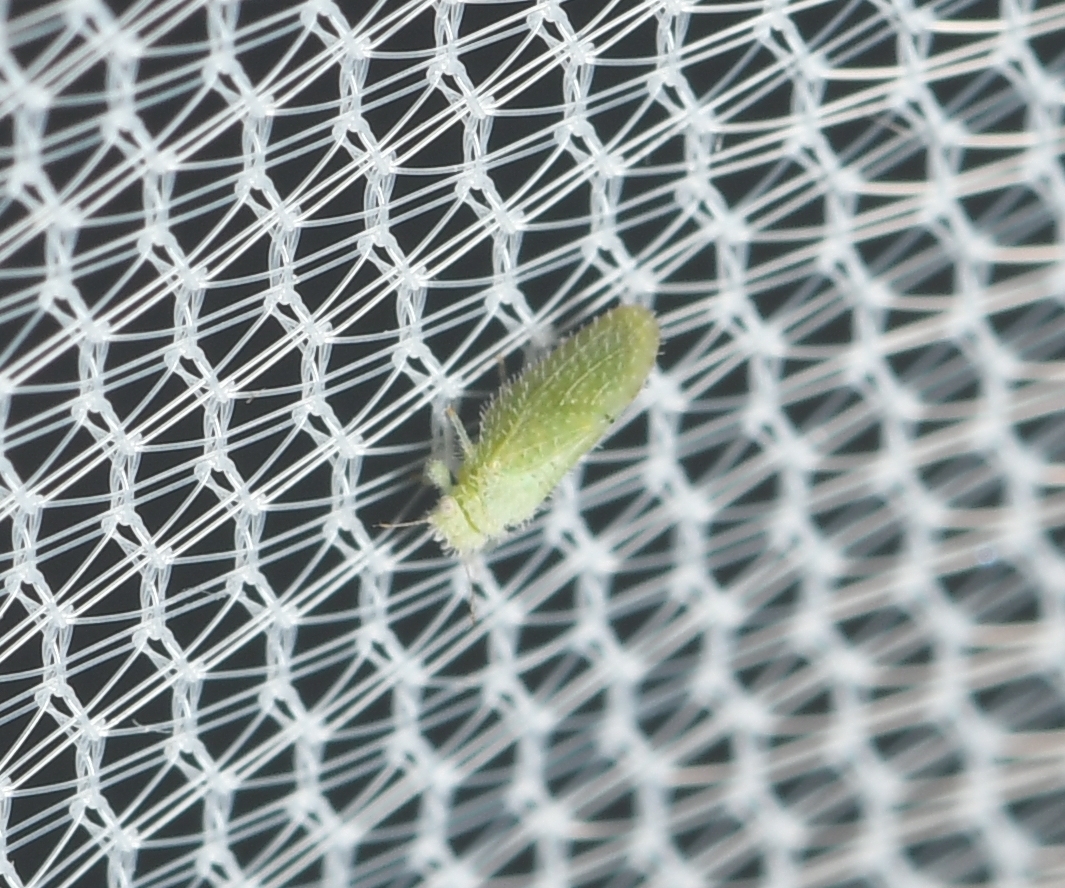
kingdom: Animalia
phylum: Arthropoda
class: Insecta
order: Hemiptera
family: Psyllidae
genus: Aphalaroida
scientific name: Aphalaroida spinifera
